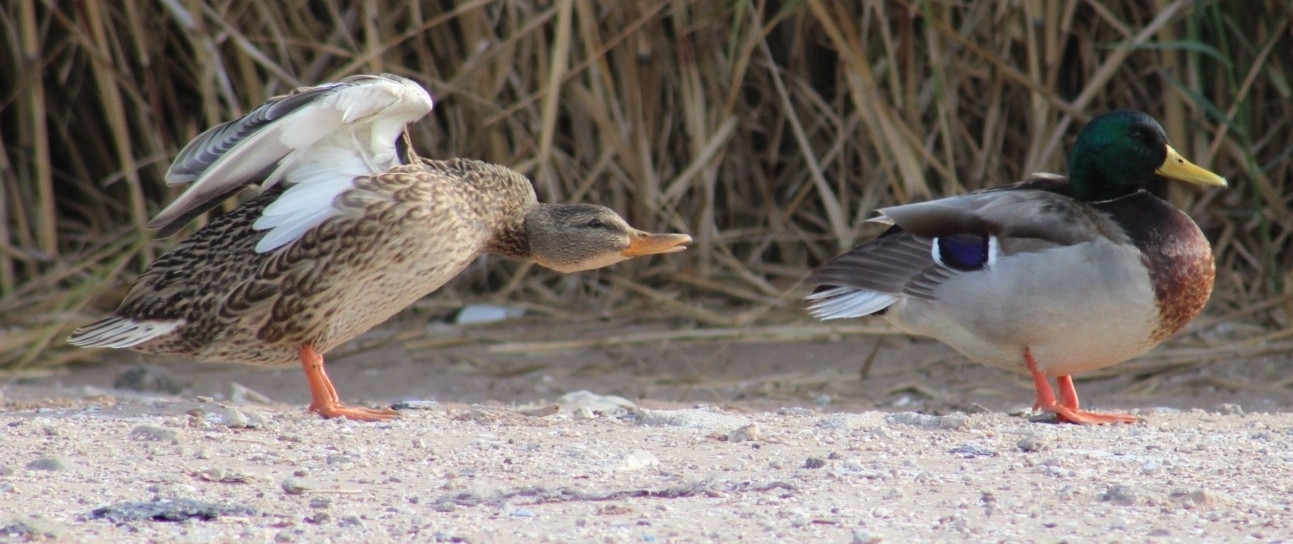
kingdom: Animalia
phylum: Chordata
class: Aves
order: Anseriformes
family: Anatidae
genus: Anas
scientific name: Anas platyrhynchos
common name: Mallard
